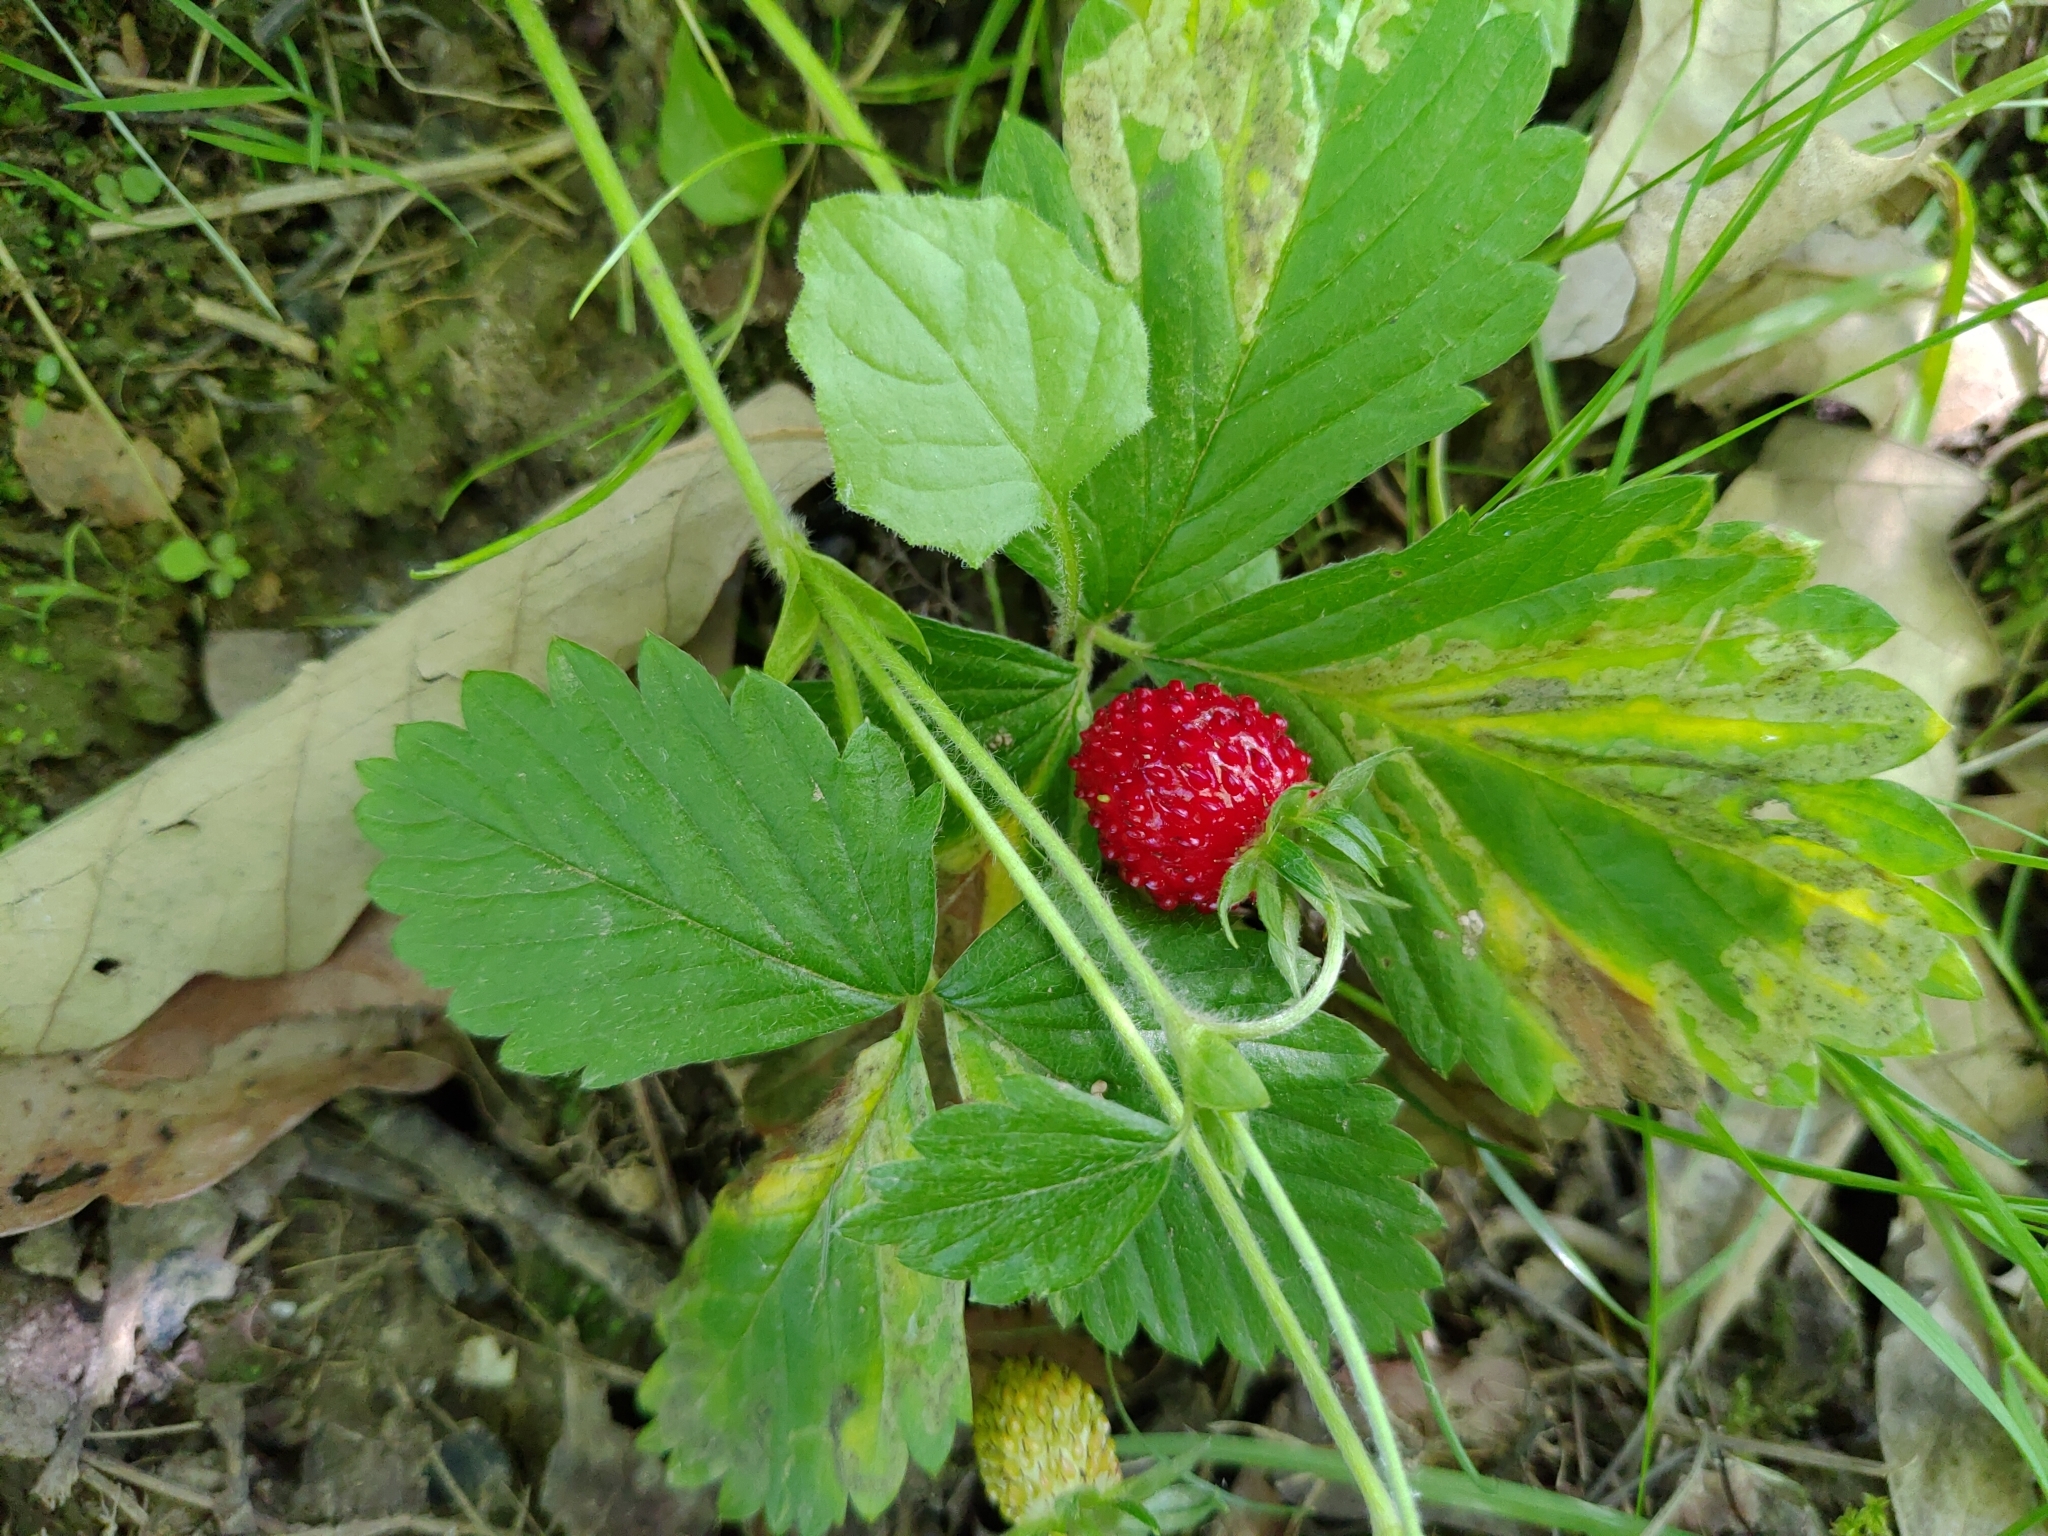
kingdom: Plantae
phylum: Tracheophyta
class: Magnoliopsida
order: Rosales
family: Rosaceae
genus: Fragaria
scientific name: Fragaria vesca
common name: Wild strawberry
